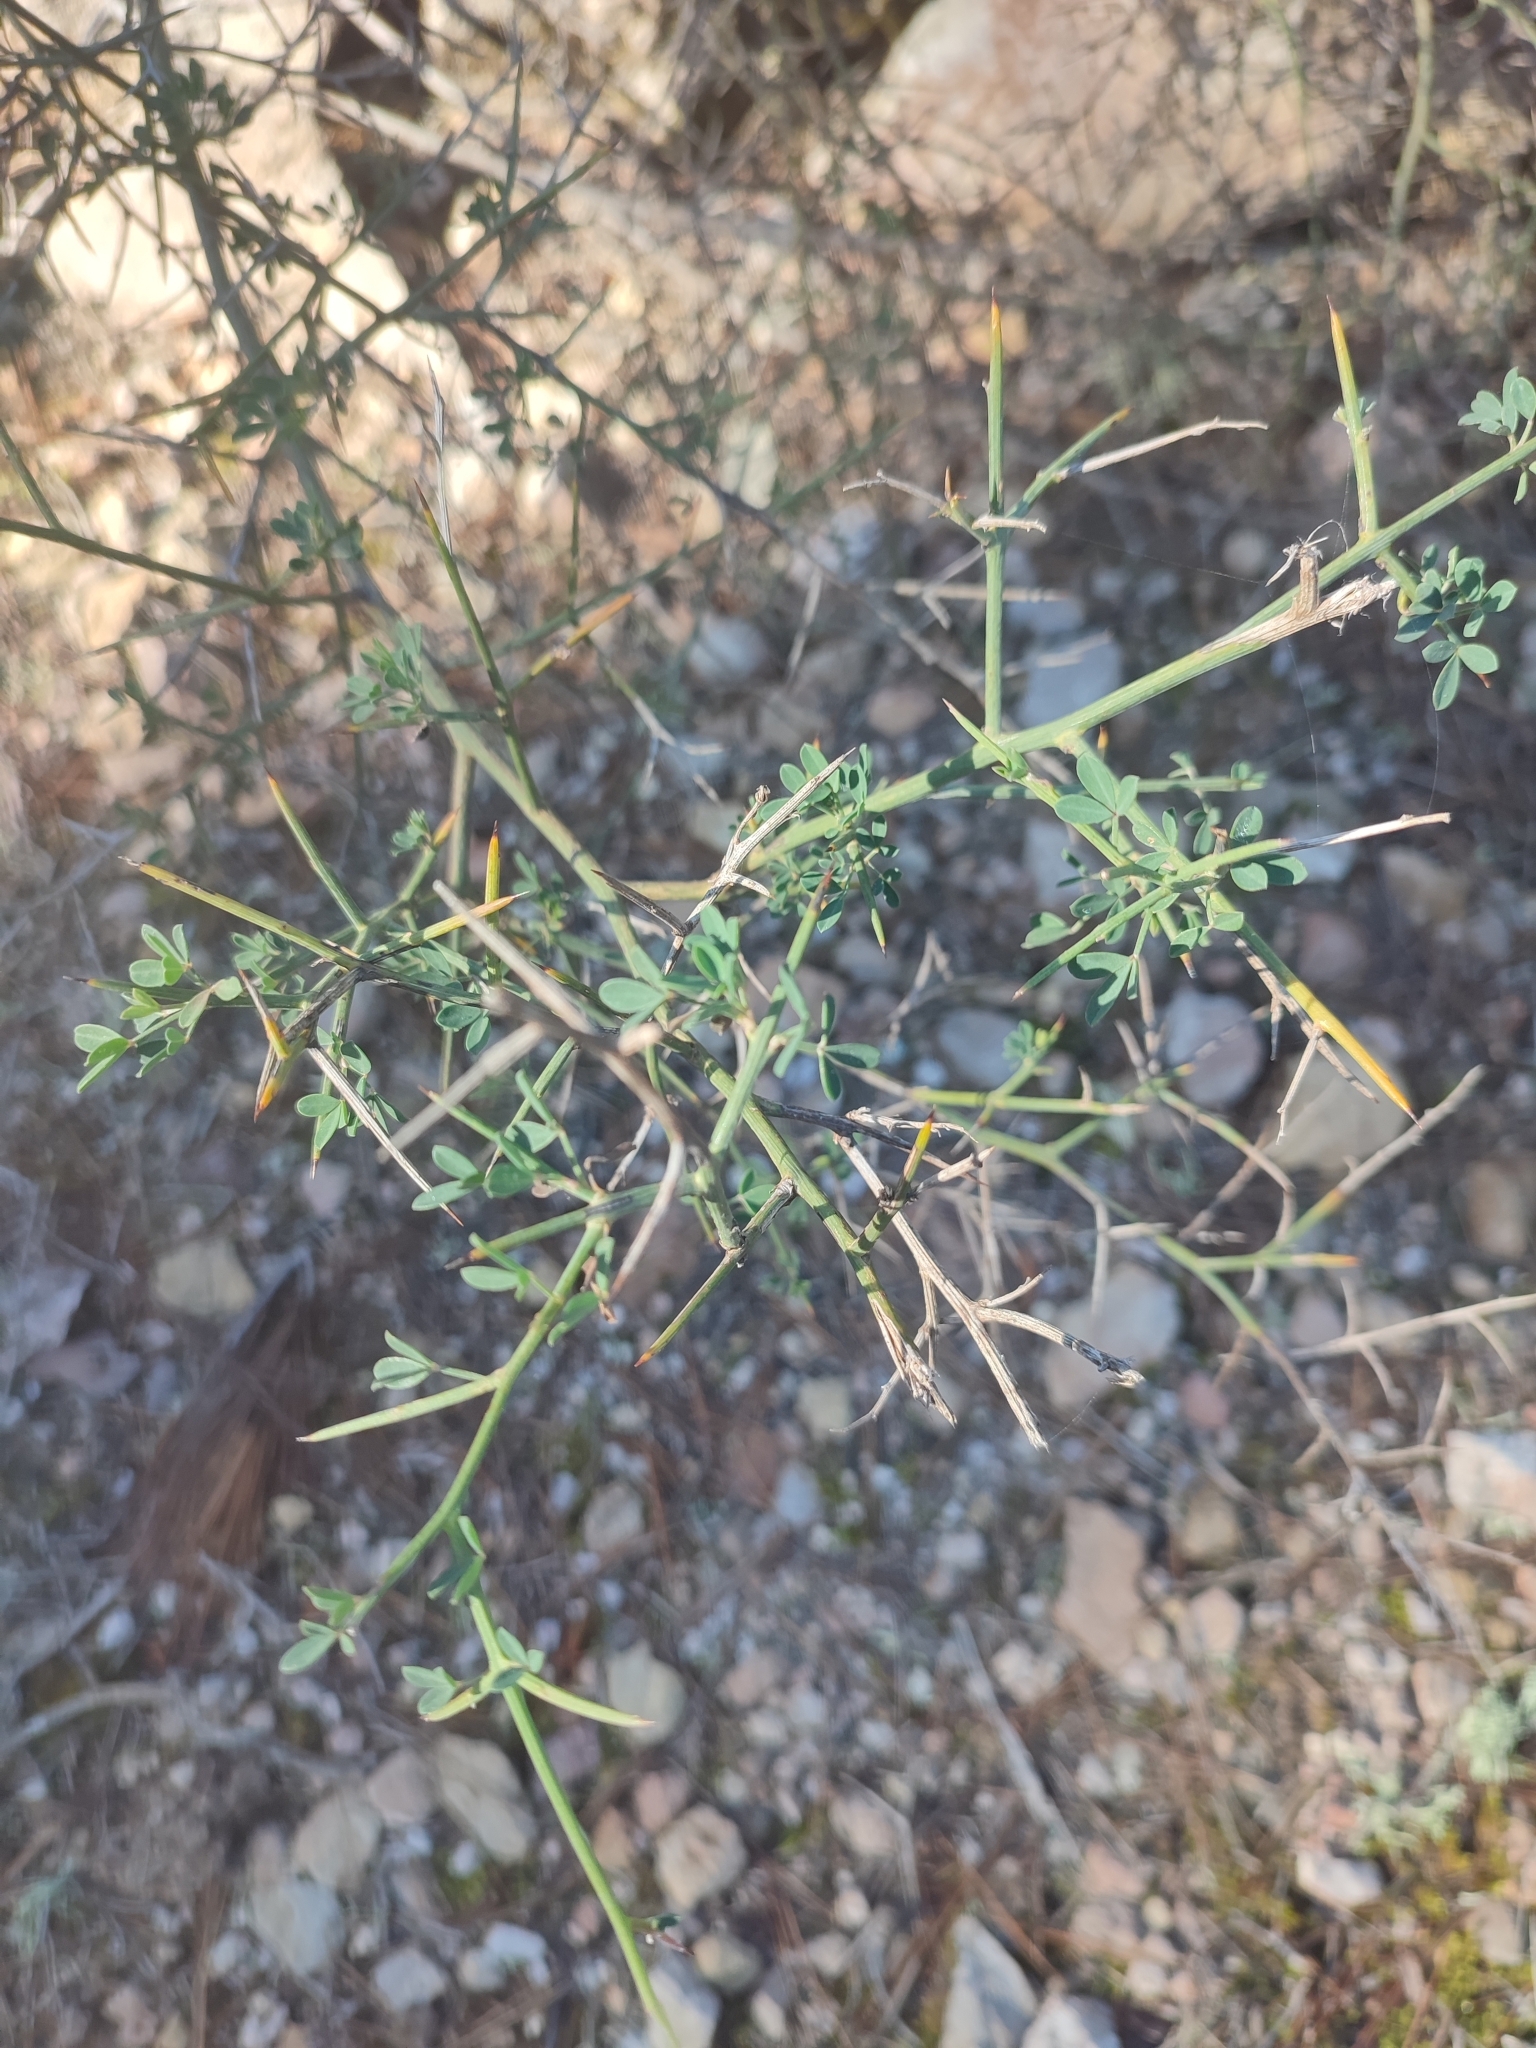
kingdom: Plantae
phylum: Tracheophyta
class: Magnoliopsida
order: Fabales
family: Fabaceae
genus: Calicotome
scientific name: Calicotome spinosa
